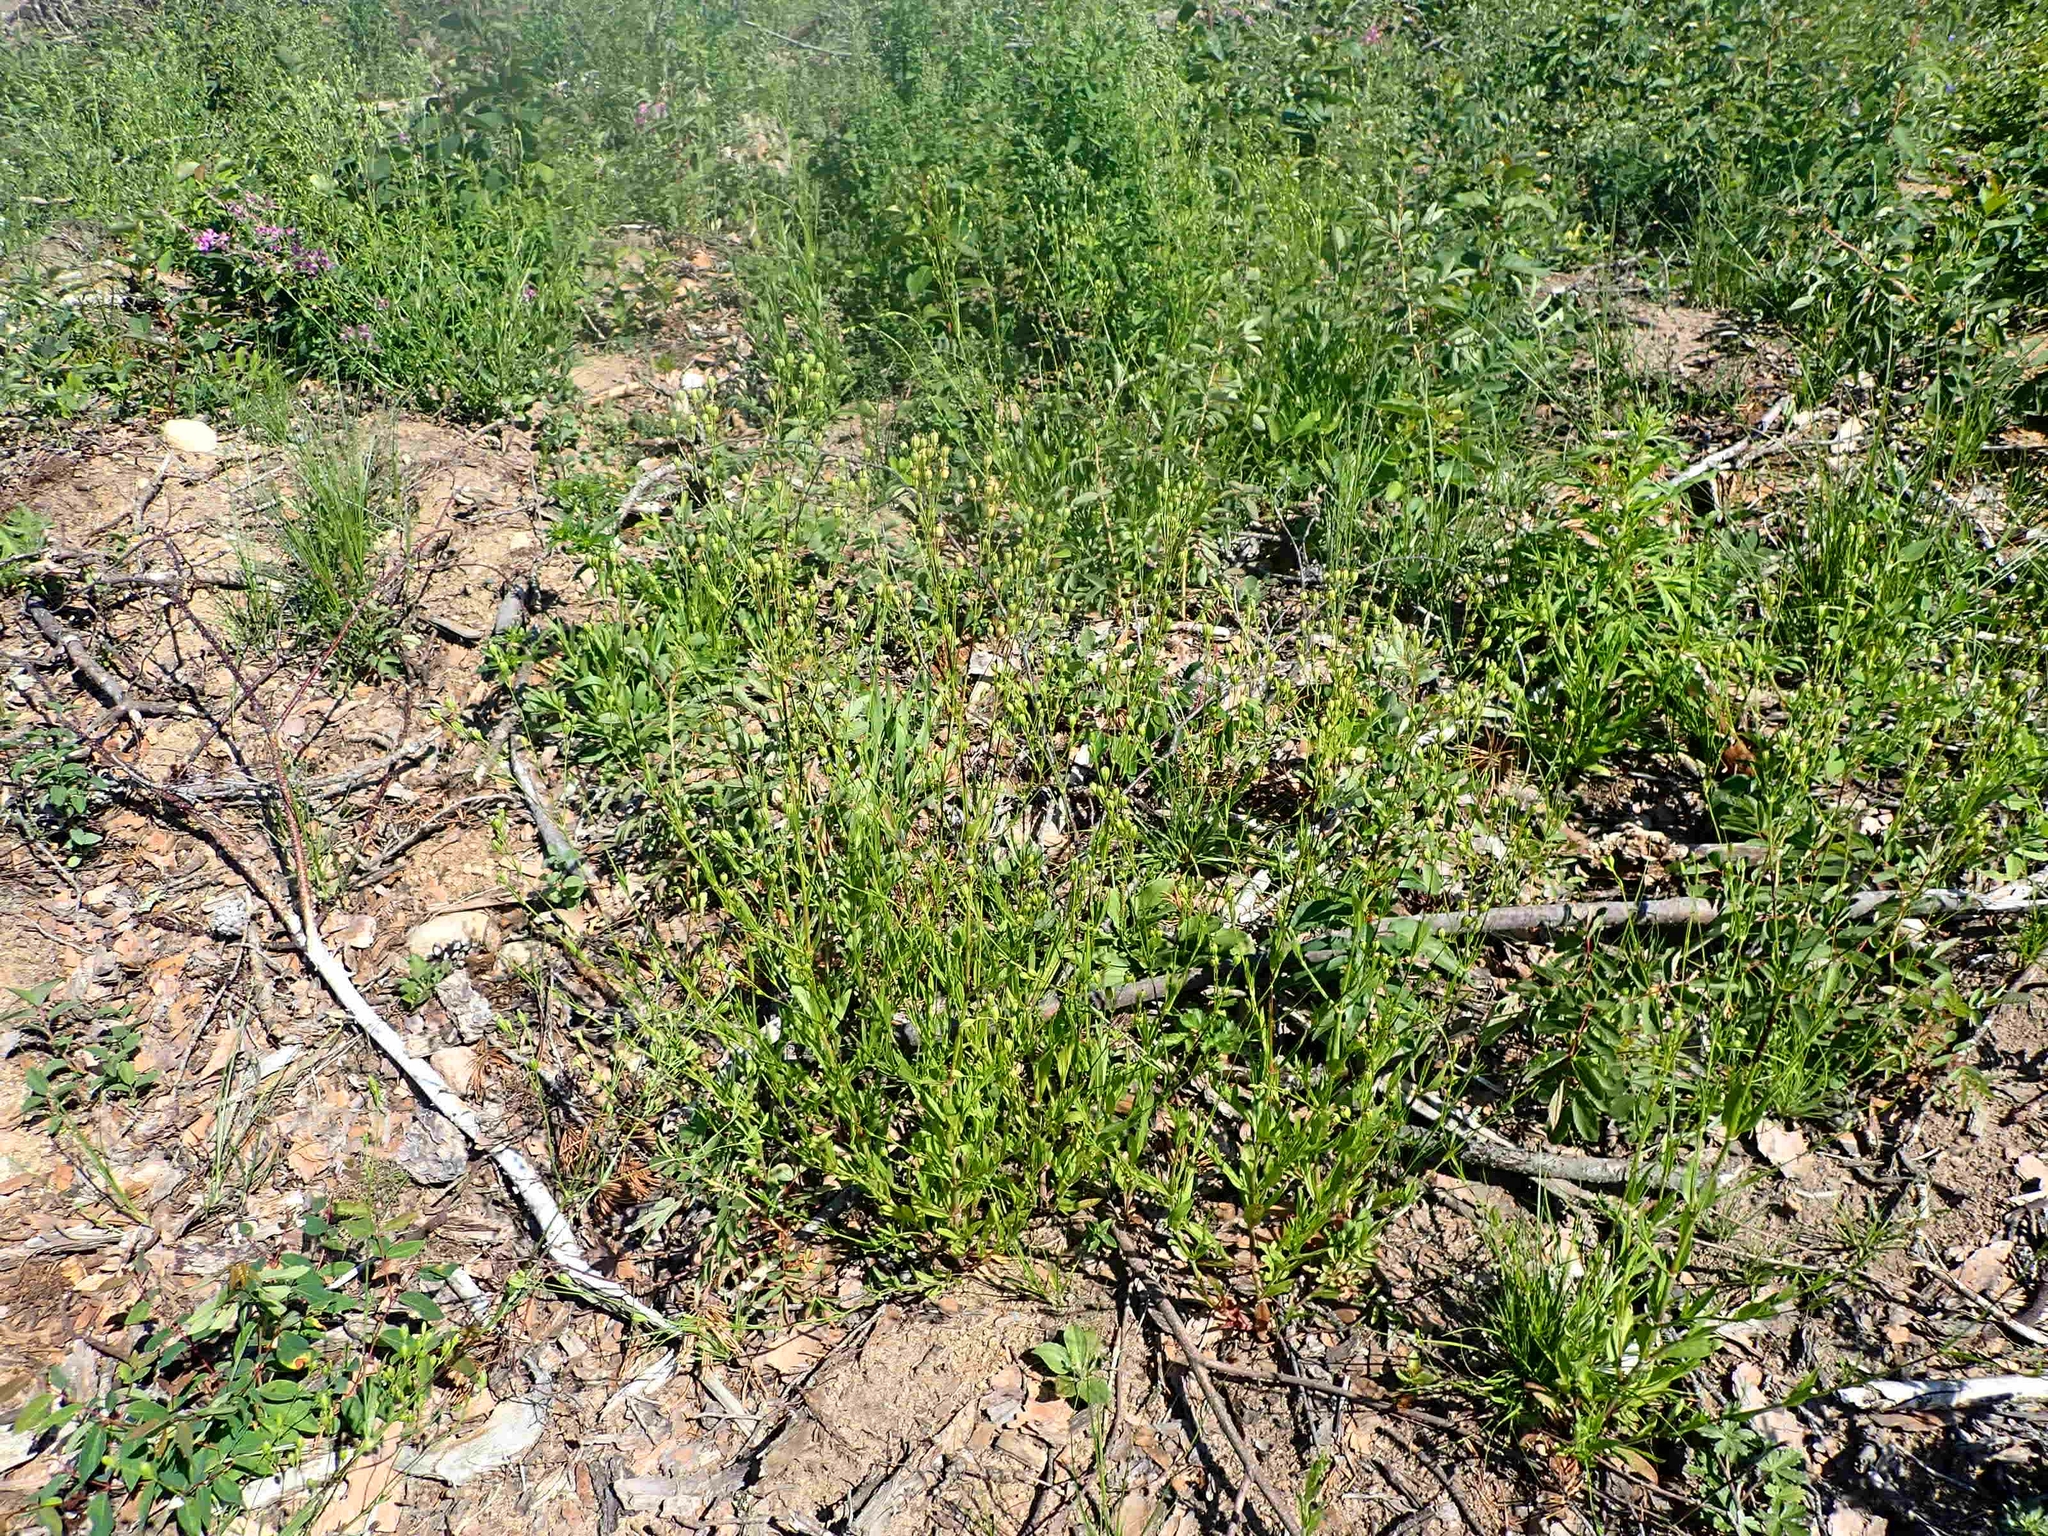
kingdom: Plantae
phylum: Tracheophyta
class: Magnoliopsida
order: Caryophyllales
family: Caryophyllaceae
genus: Silene
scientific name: Silene antirrhina
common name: Sleepy catchfly
